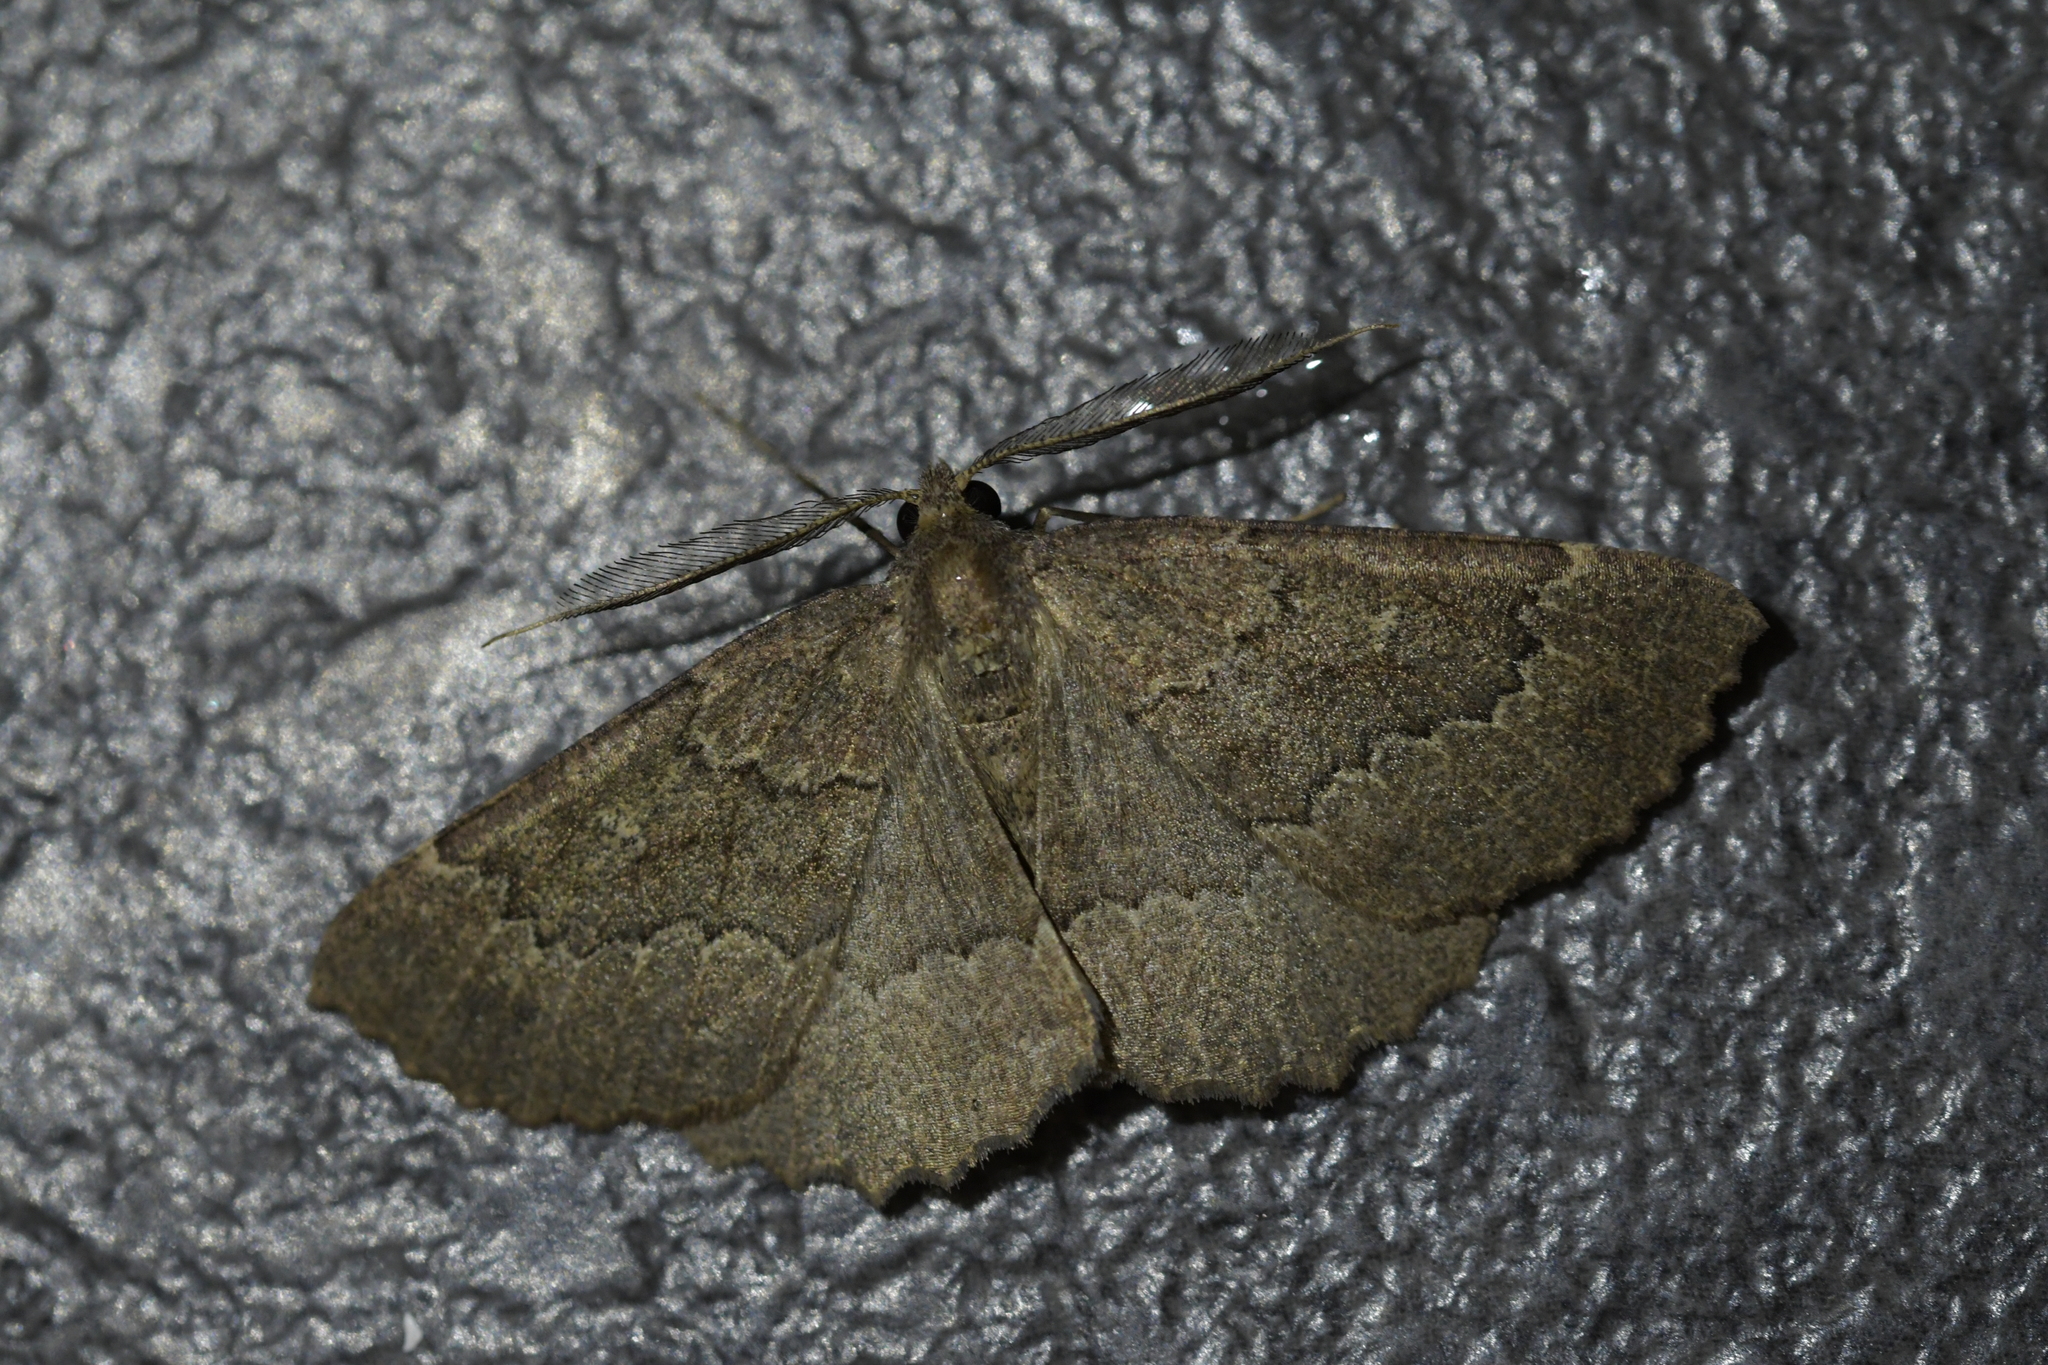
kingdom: Animalia
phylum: Arthropoda
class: Insecta
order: Lepidoptera
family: Geometridae
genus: Cleora
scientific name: Cleora scriptaria
